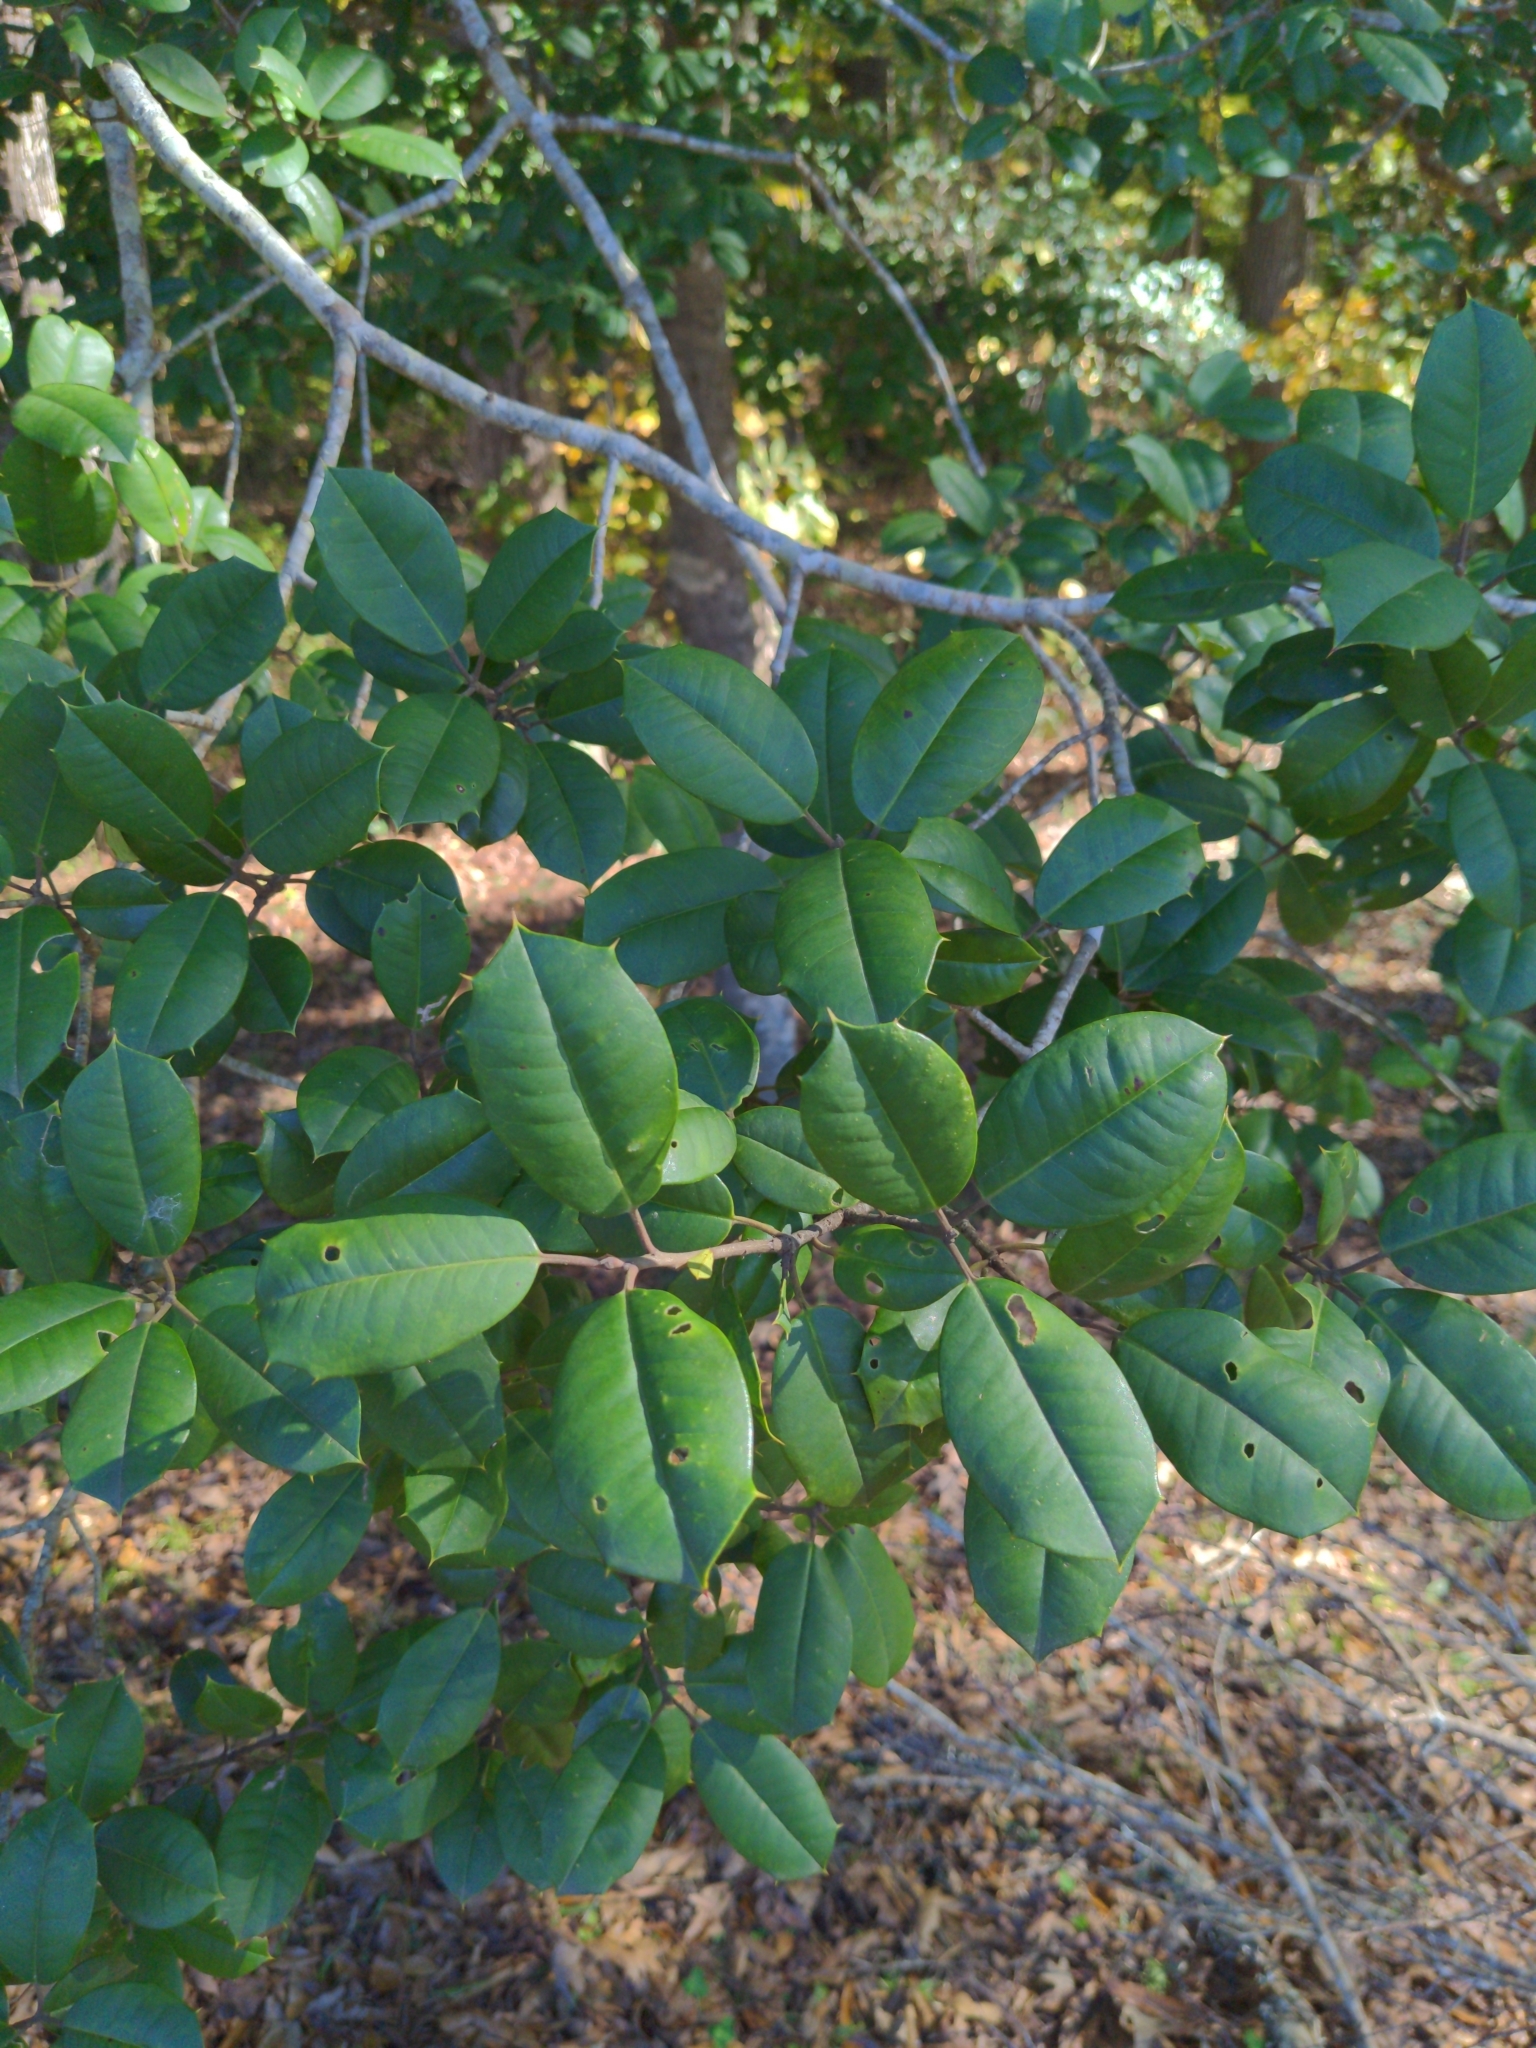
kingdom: Plantae
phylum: Tracheophyta
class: Magnoliopsida
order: Aquifoliales
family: Aquifoliaceae
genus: Ilex
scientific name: Ilex opaca
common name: American holly
